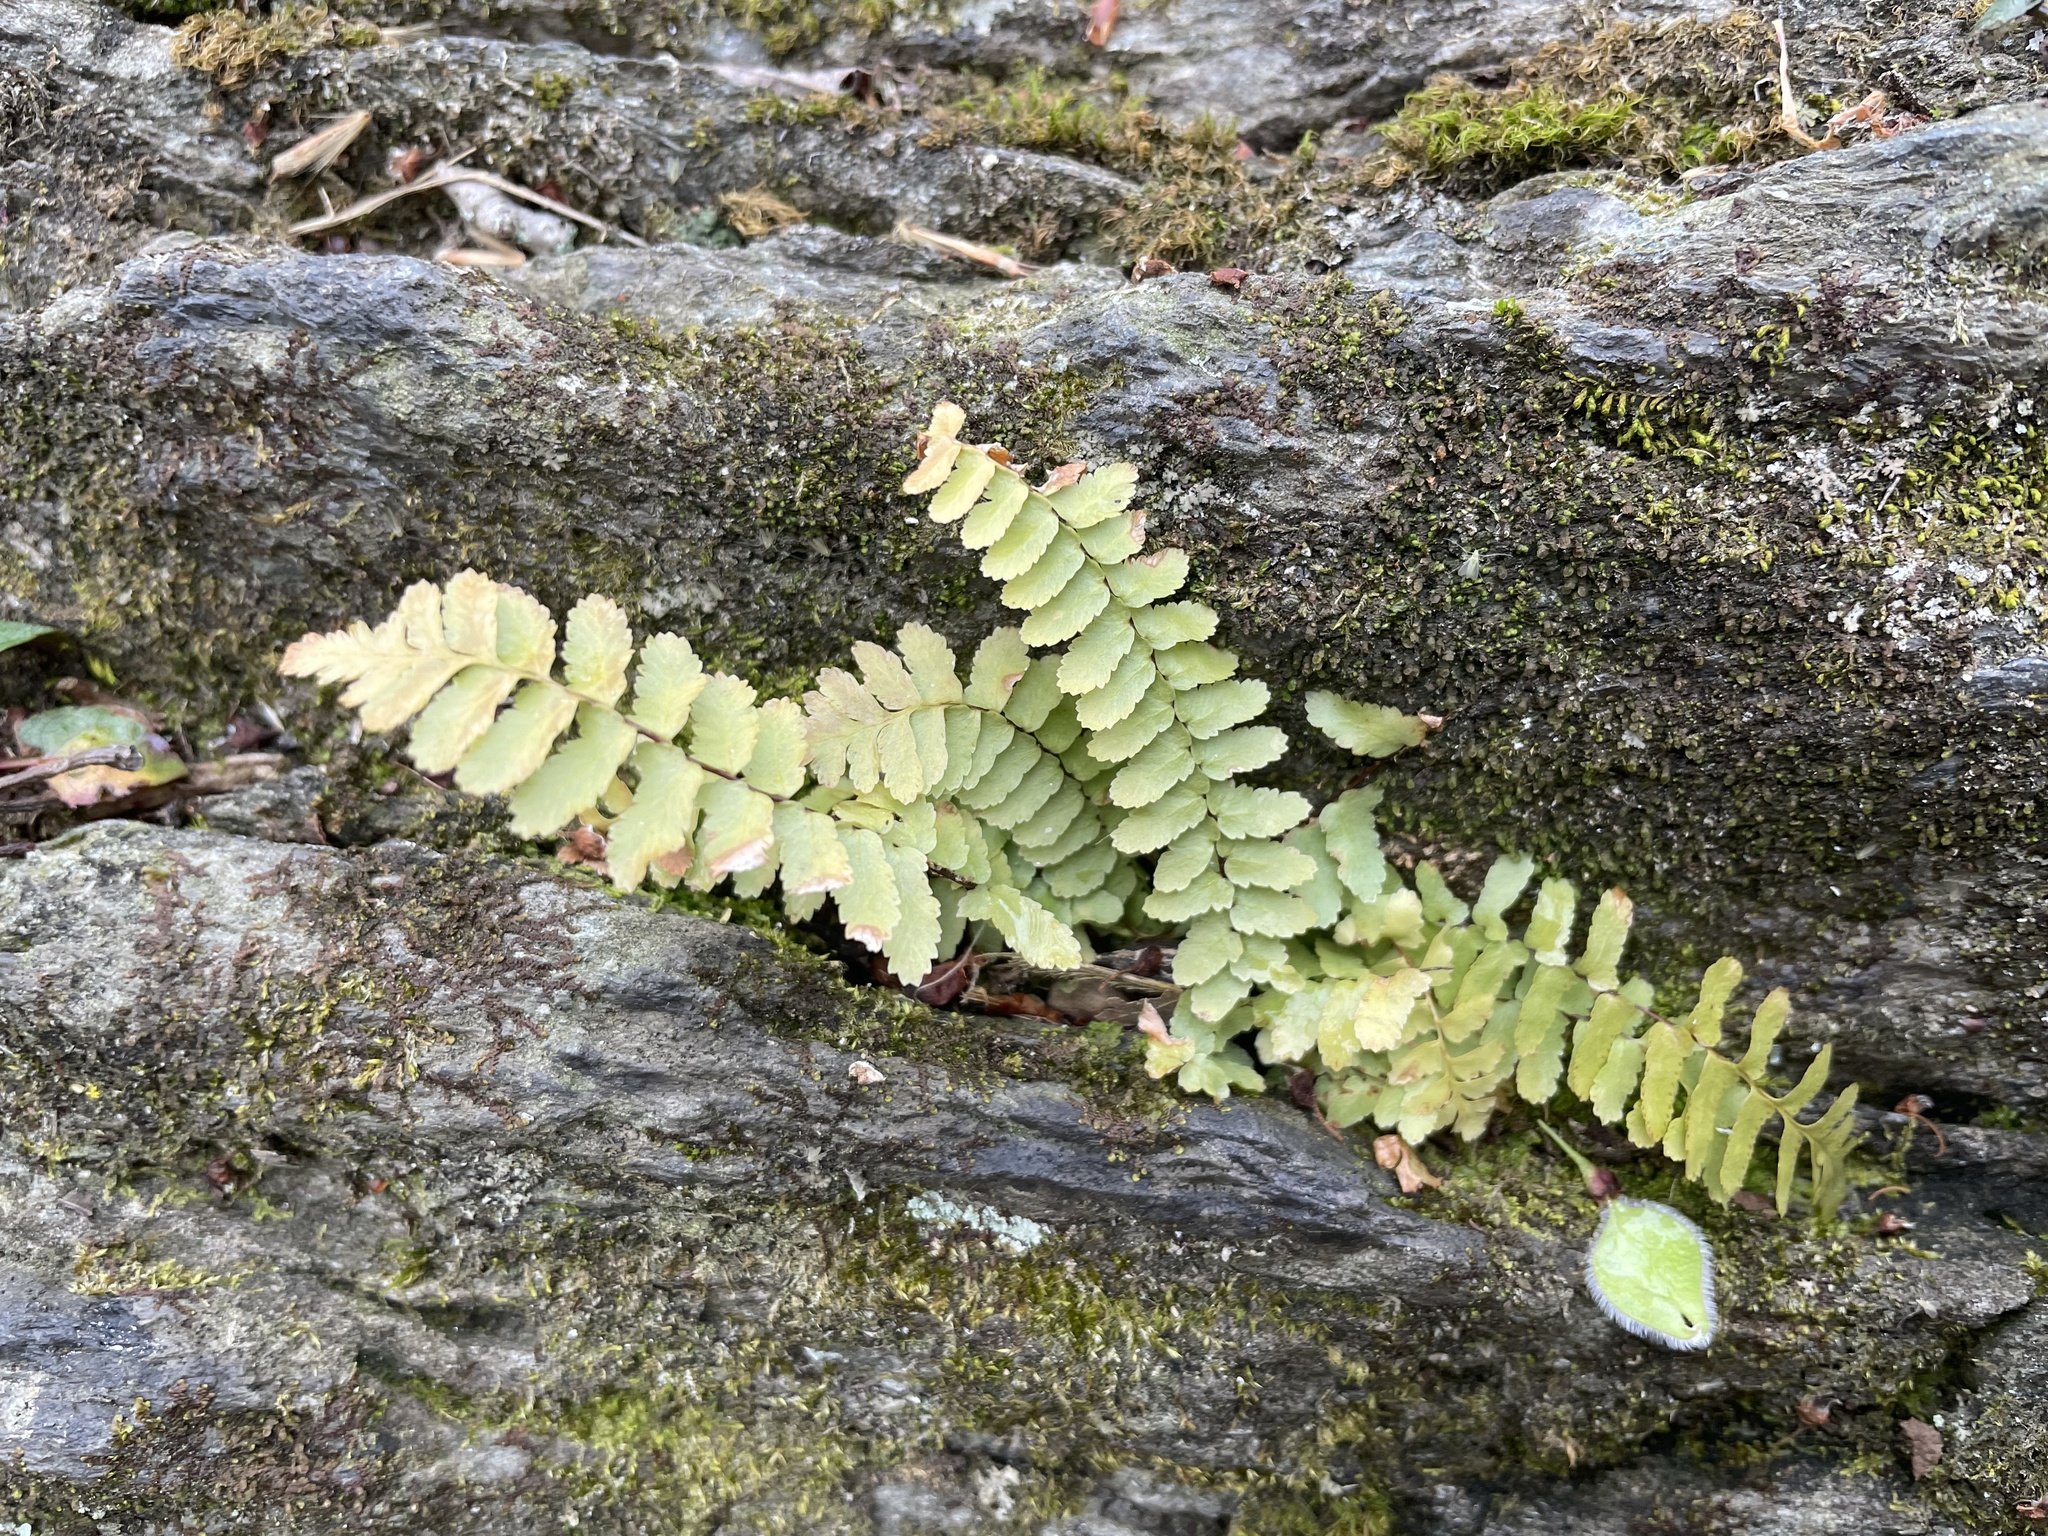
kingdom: Plantae
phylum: Tracheophyta
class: Polypodiopsida
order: Polypodiales
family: Aspleniaceae
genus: Asplenium
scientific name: Asplenium platyneuron
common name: Ebony spleenwort
